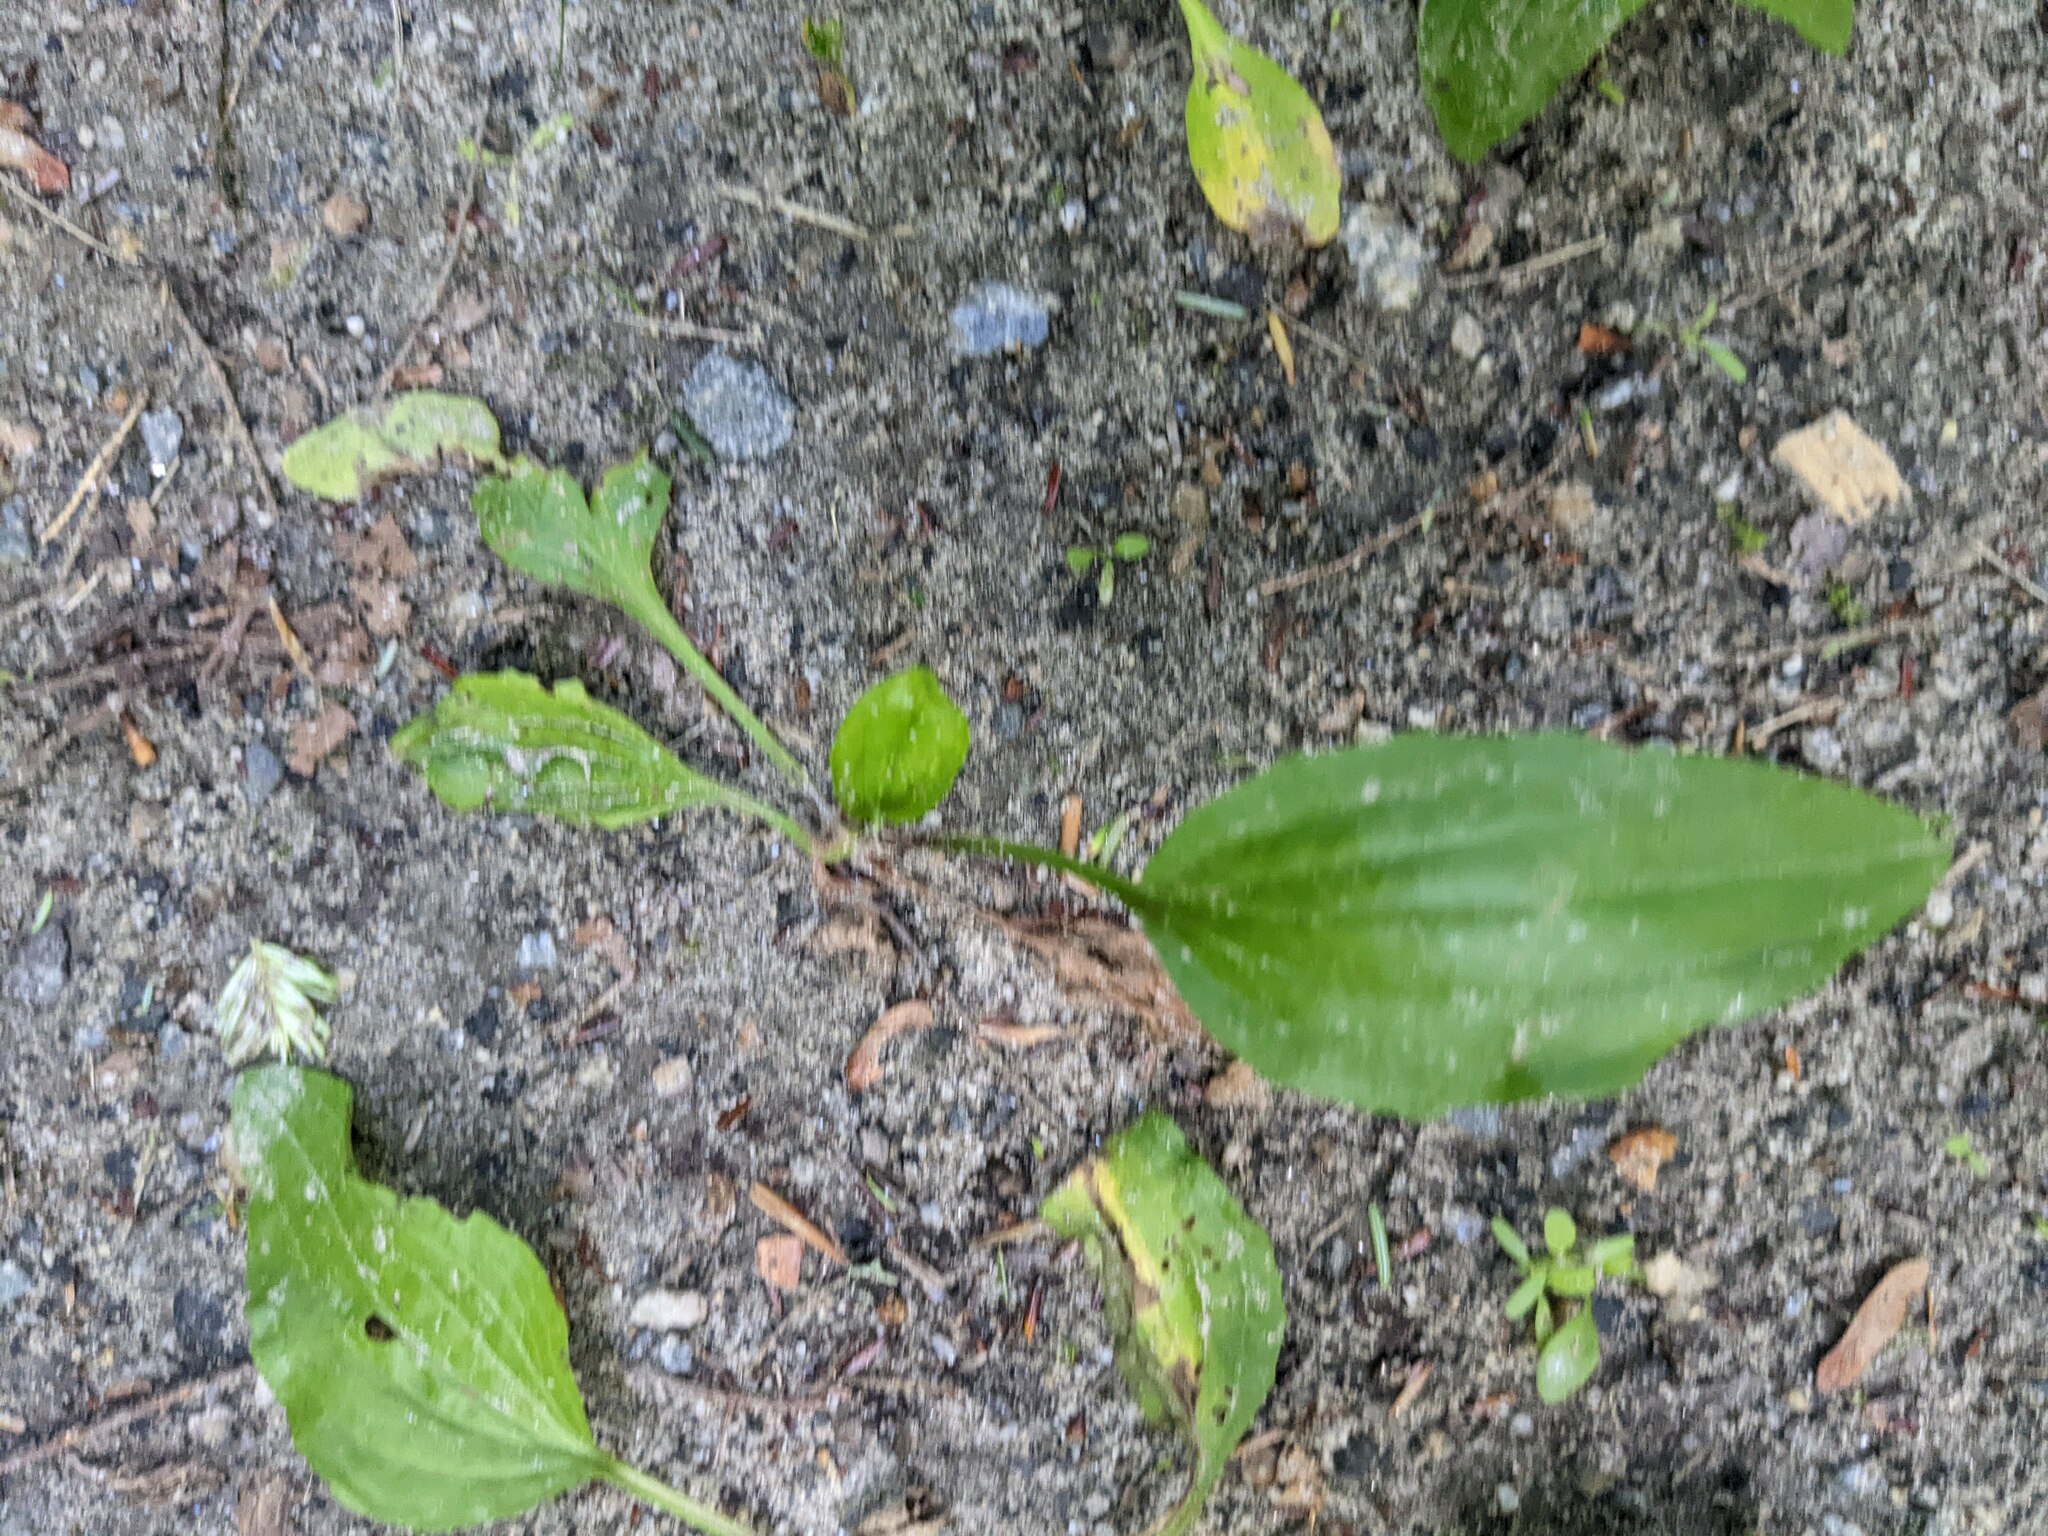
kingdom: Plantae
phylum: Tracheophyta
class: Magnoliopsida
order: Lamiales
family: Plantaginaceae
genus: Plantago
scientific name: Plantago rugelii
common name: American plantain
